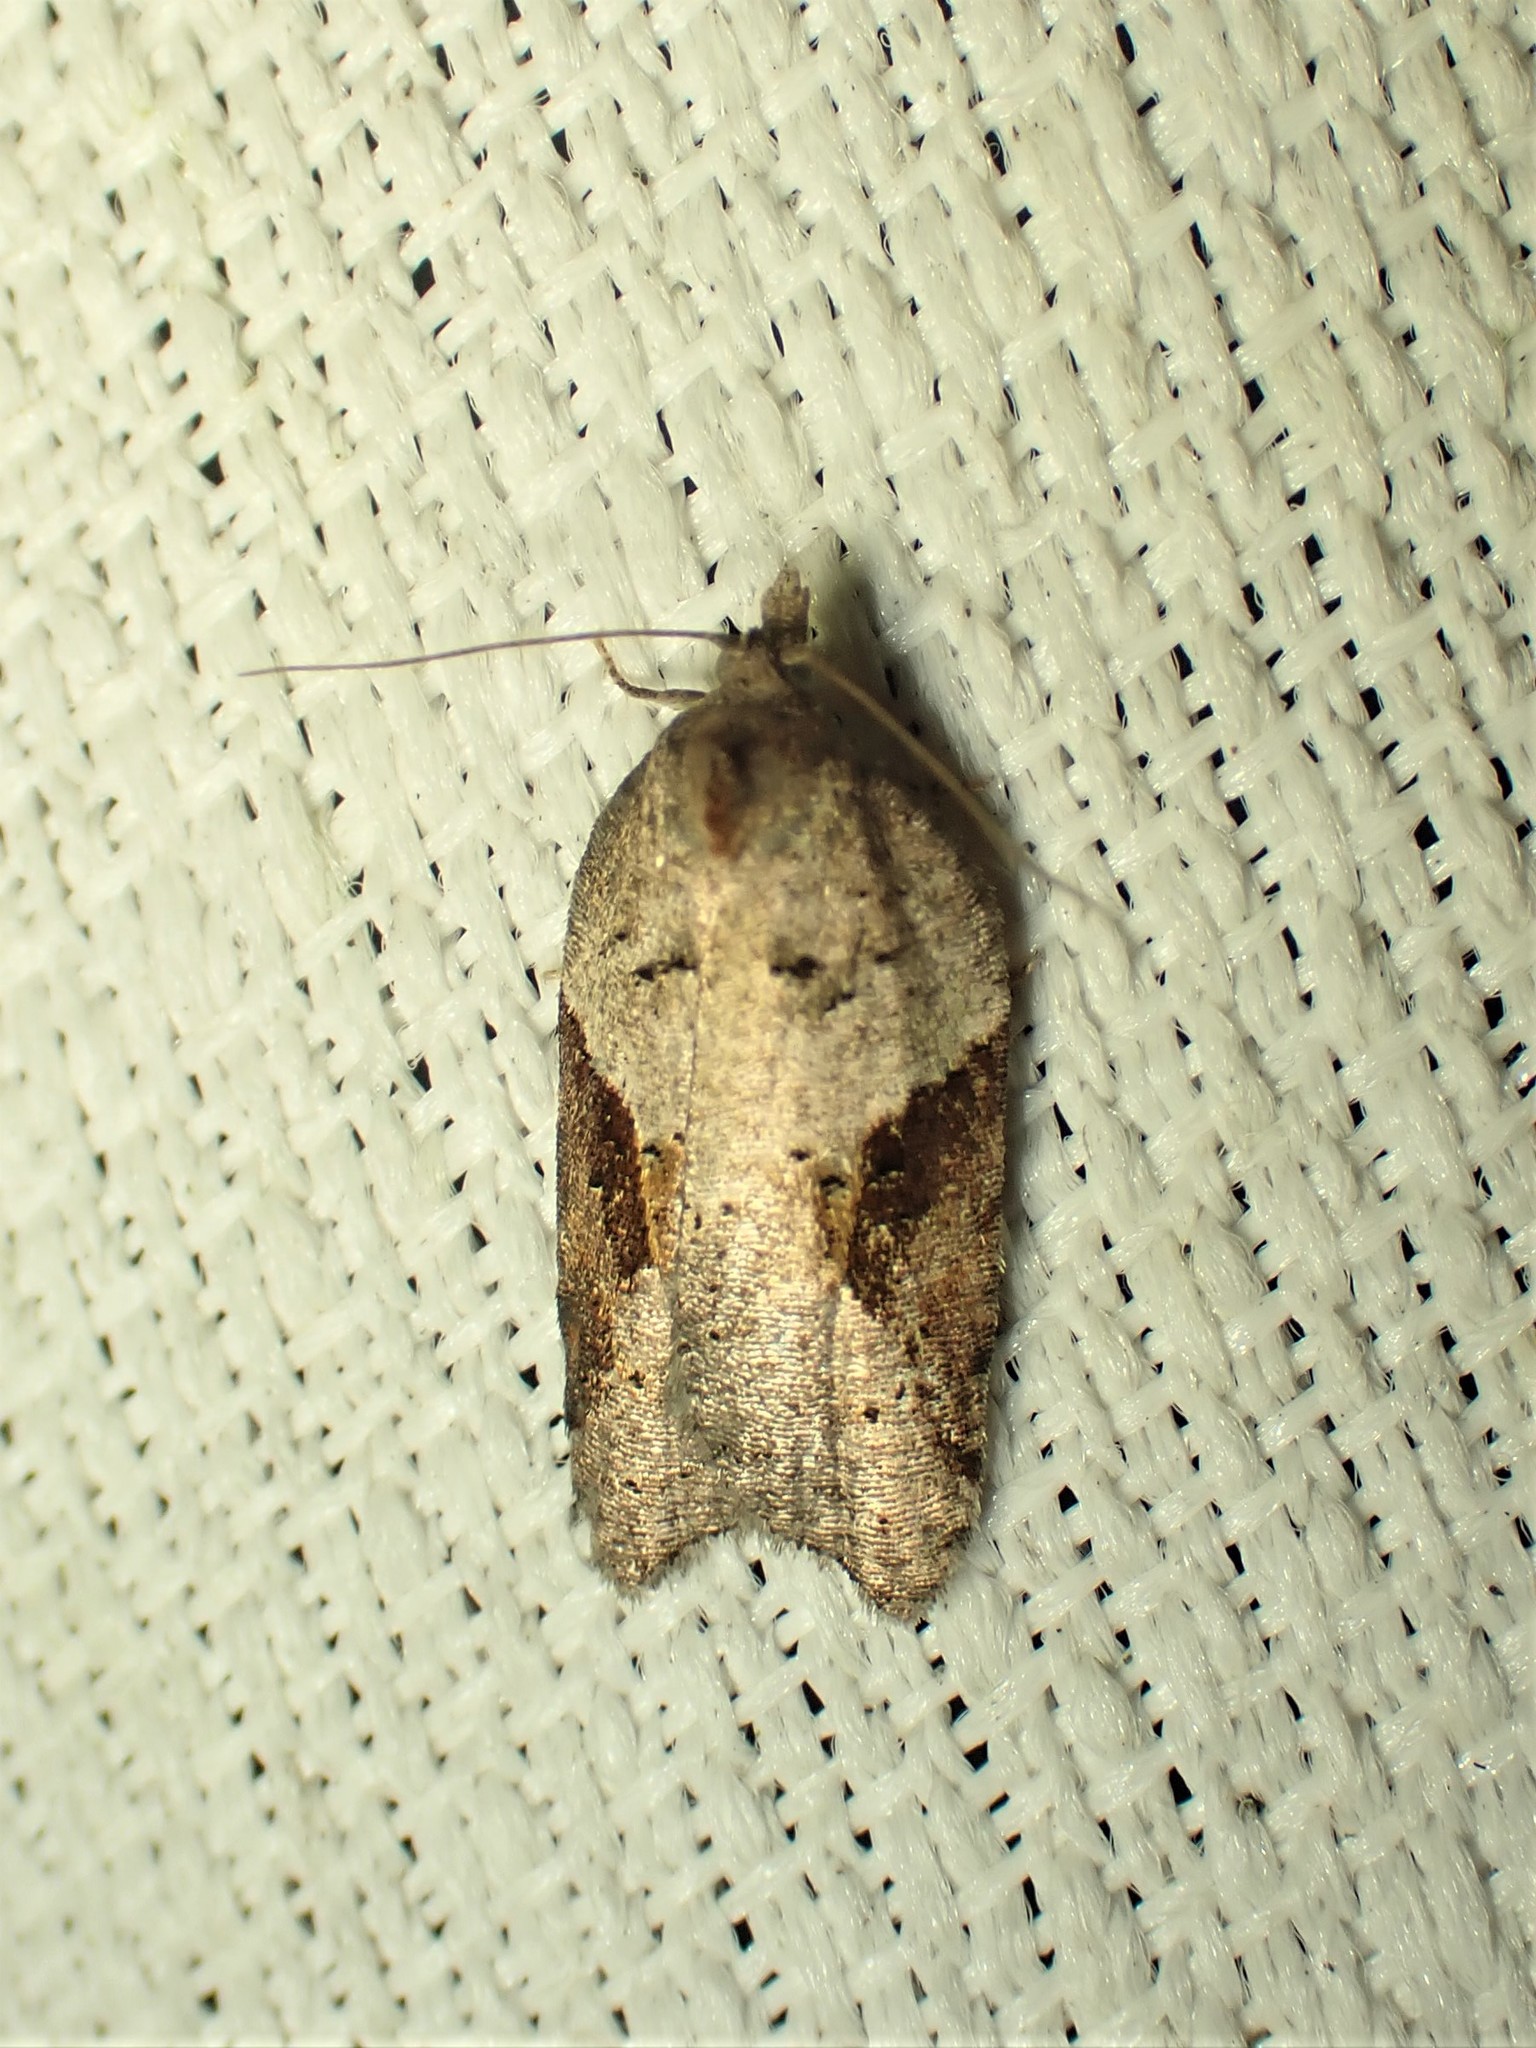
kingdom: Animalia
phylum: Arthropoda
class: Insecta
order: Lepidoptera
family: Tortricidae
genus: Acleris
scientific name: Acleris macdunnoughi
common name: Macdunnough's acleris
